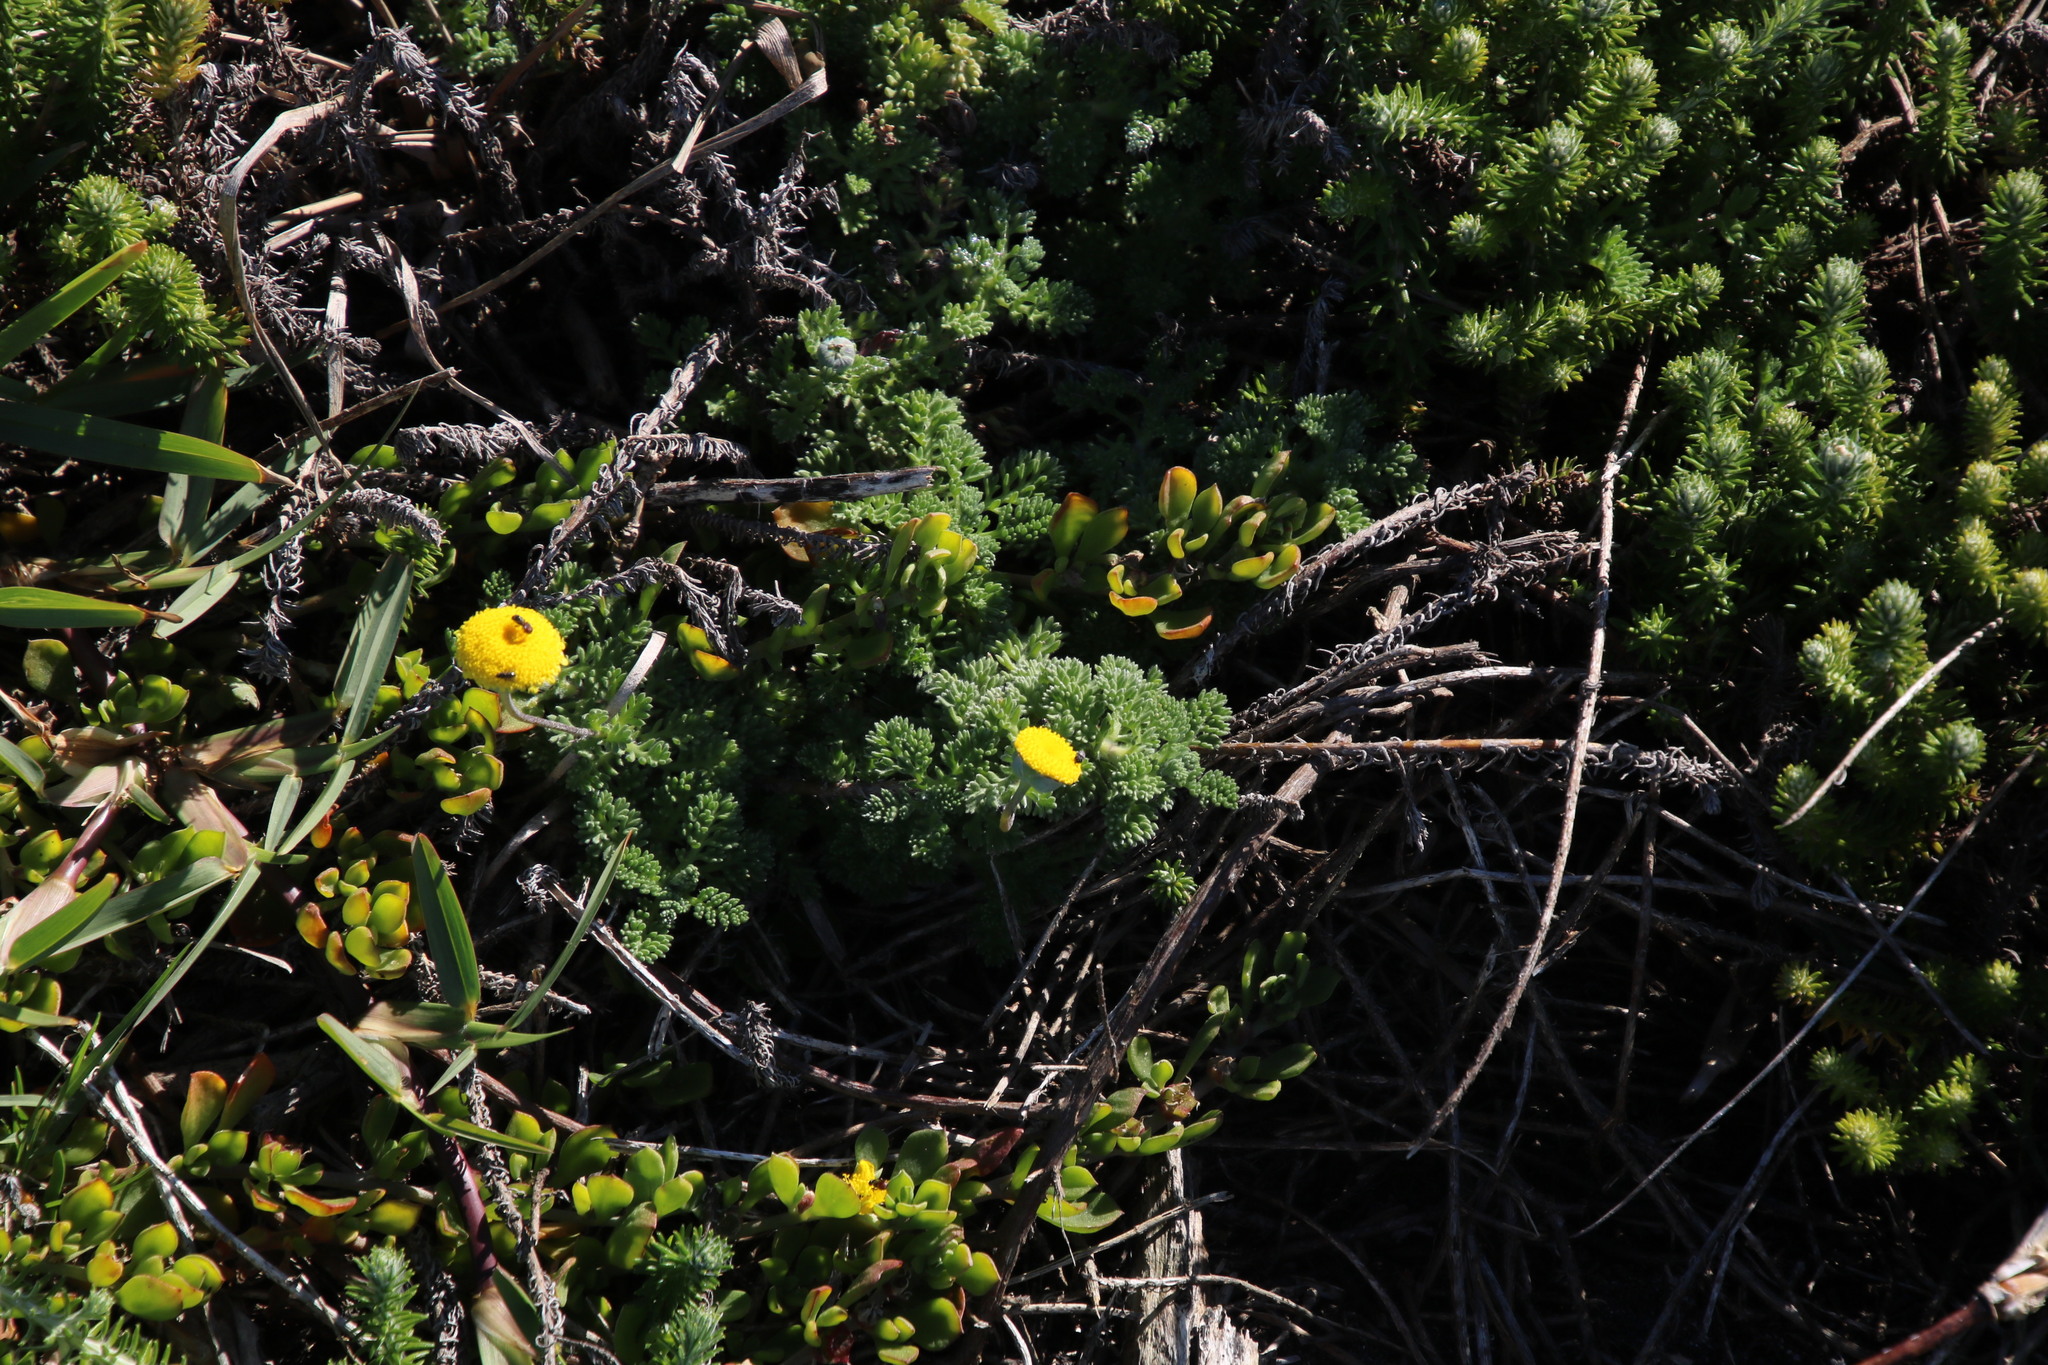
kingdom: Plantae
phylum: Tracheophyta
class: Magnoliopsida
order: Asterales
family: Asteraceae
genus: Cotula
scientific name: Cotula discolor
